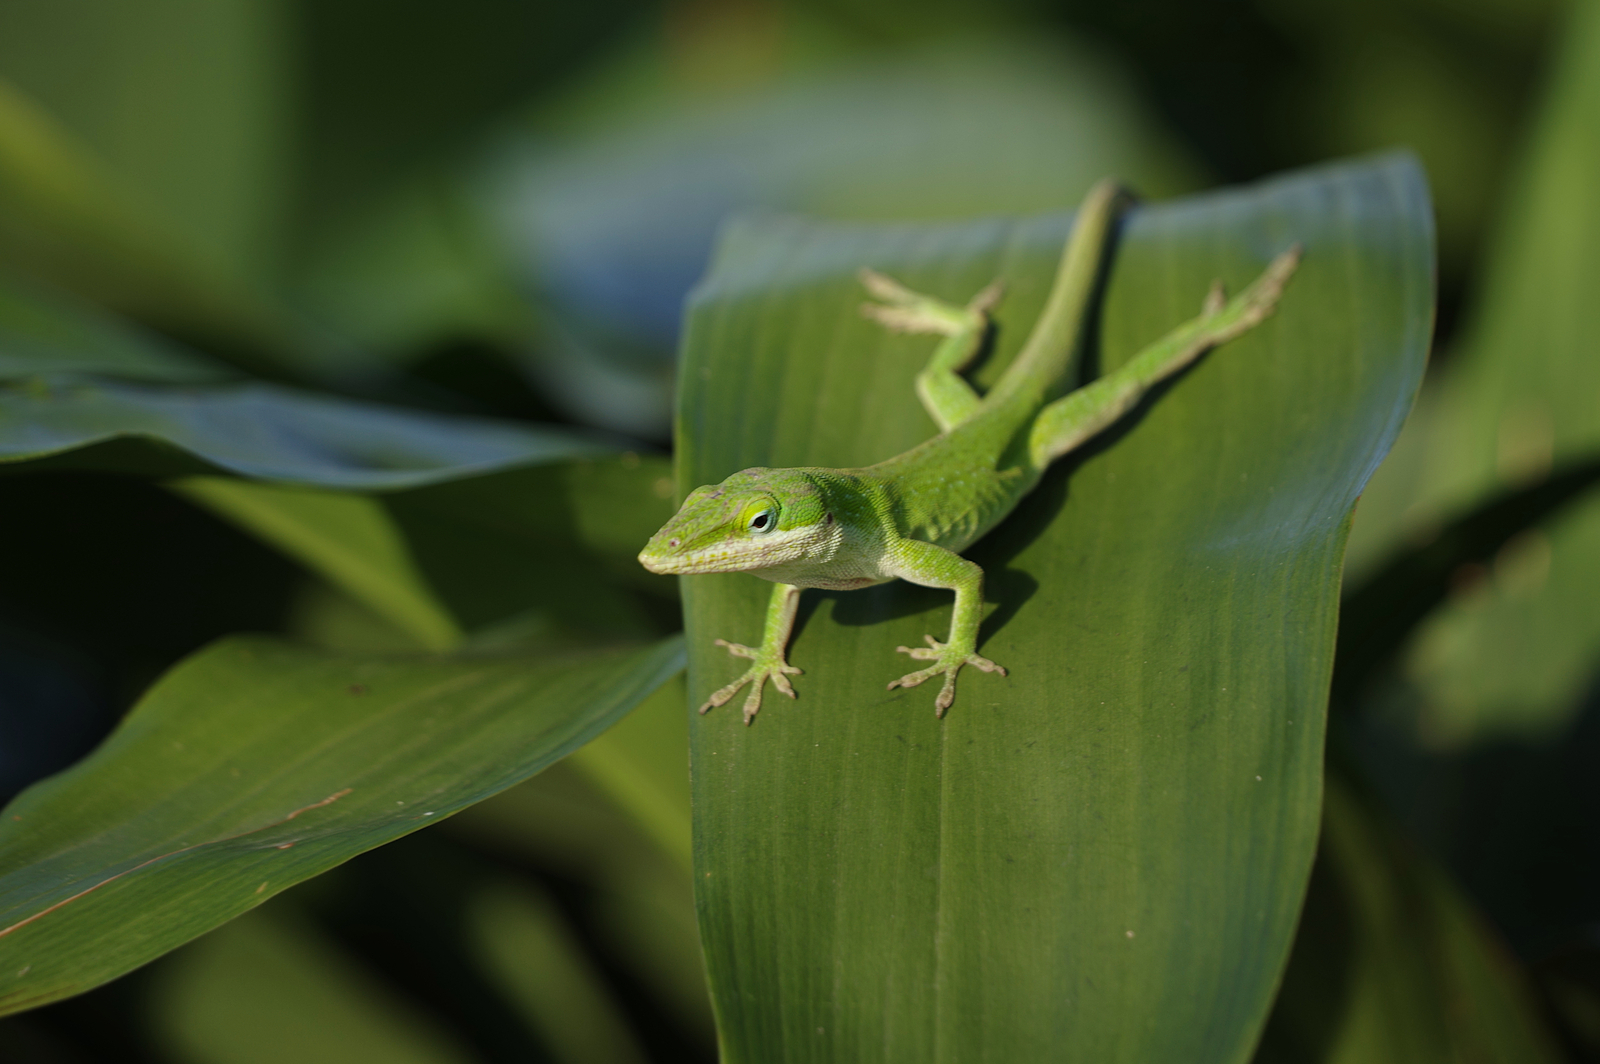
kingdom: Animalia
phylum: Chordata
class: Squamata
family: Dactyloidae
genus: Anolis
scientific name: Anolis carolinensis
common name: Green anole
